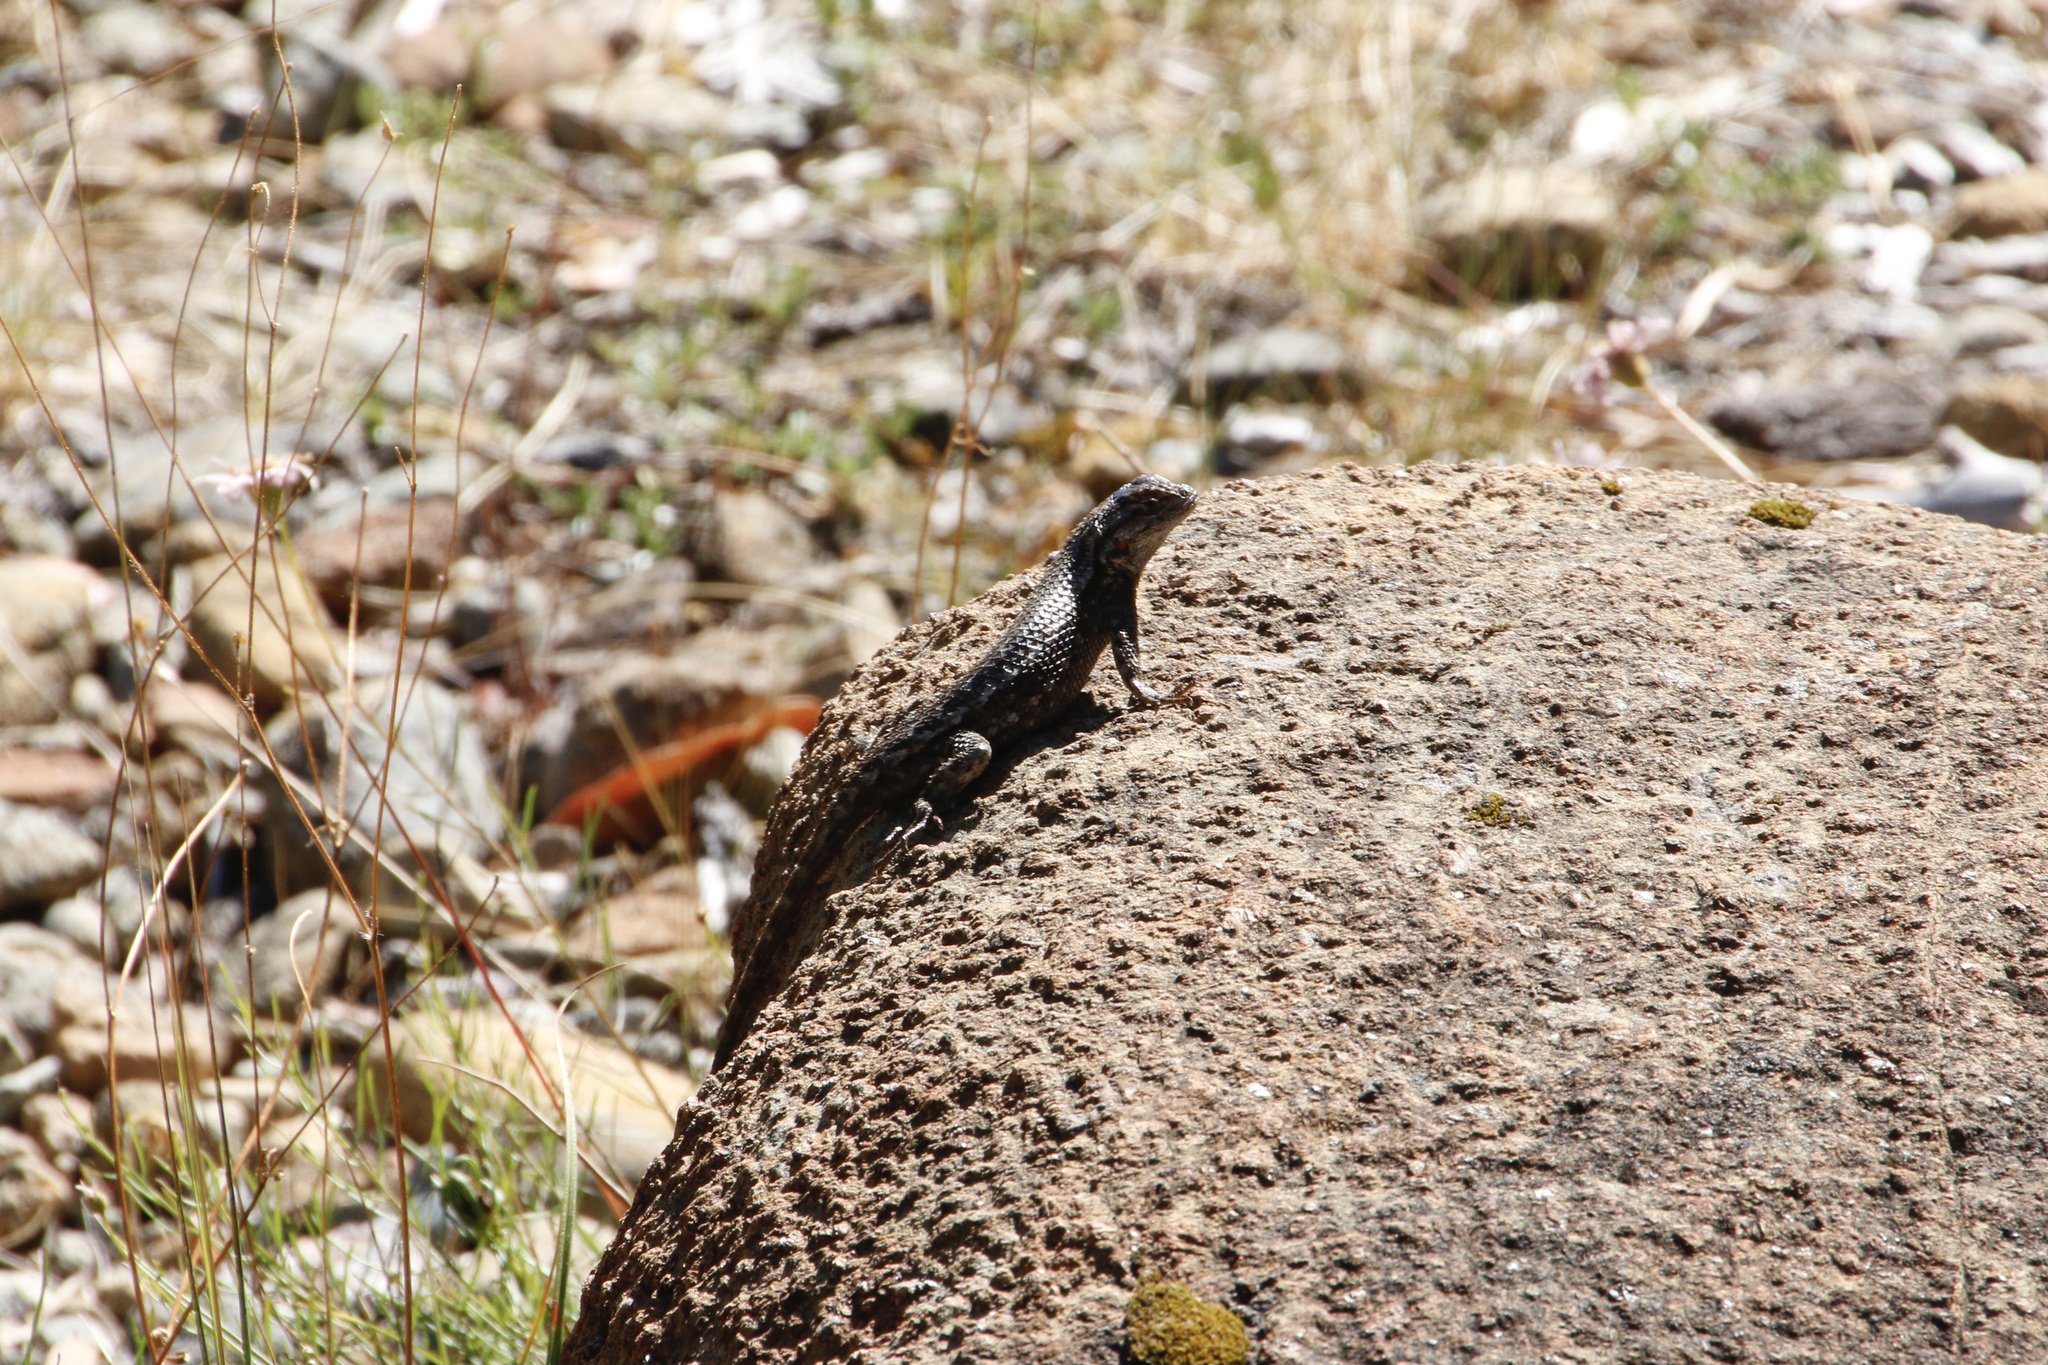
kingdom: Animalia
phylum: Chordata
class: Squamata
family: Phrynosomatidae
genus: Sceloporus
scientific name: Sceloporus occidentalis
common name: Western fence lizard
